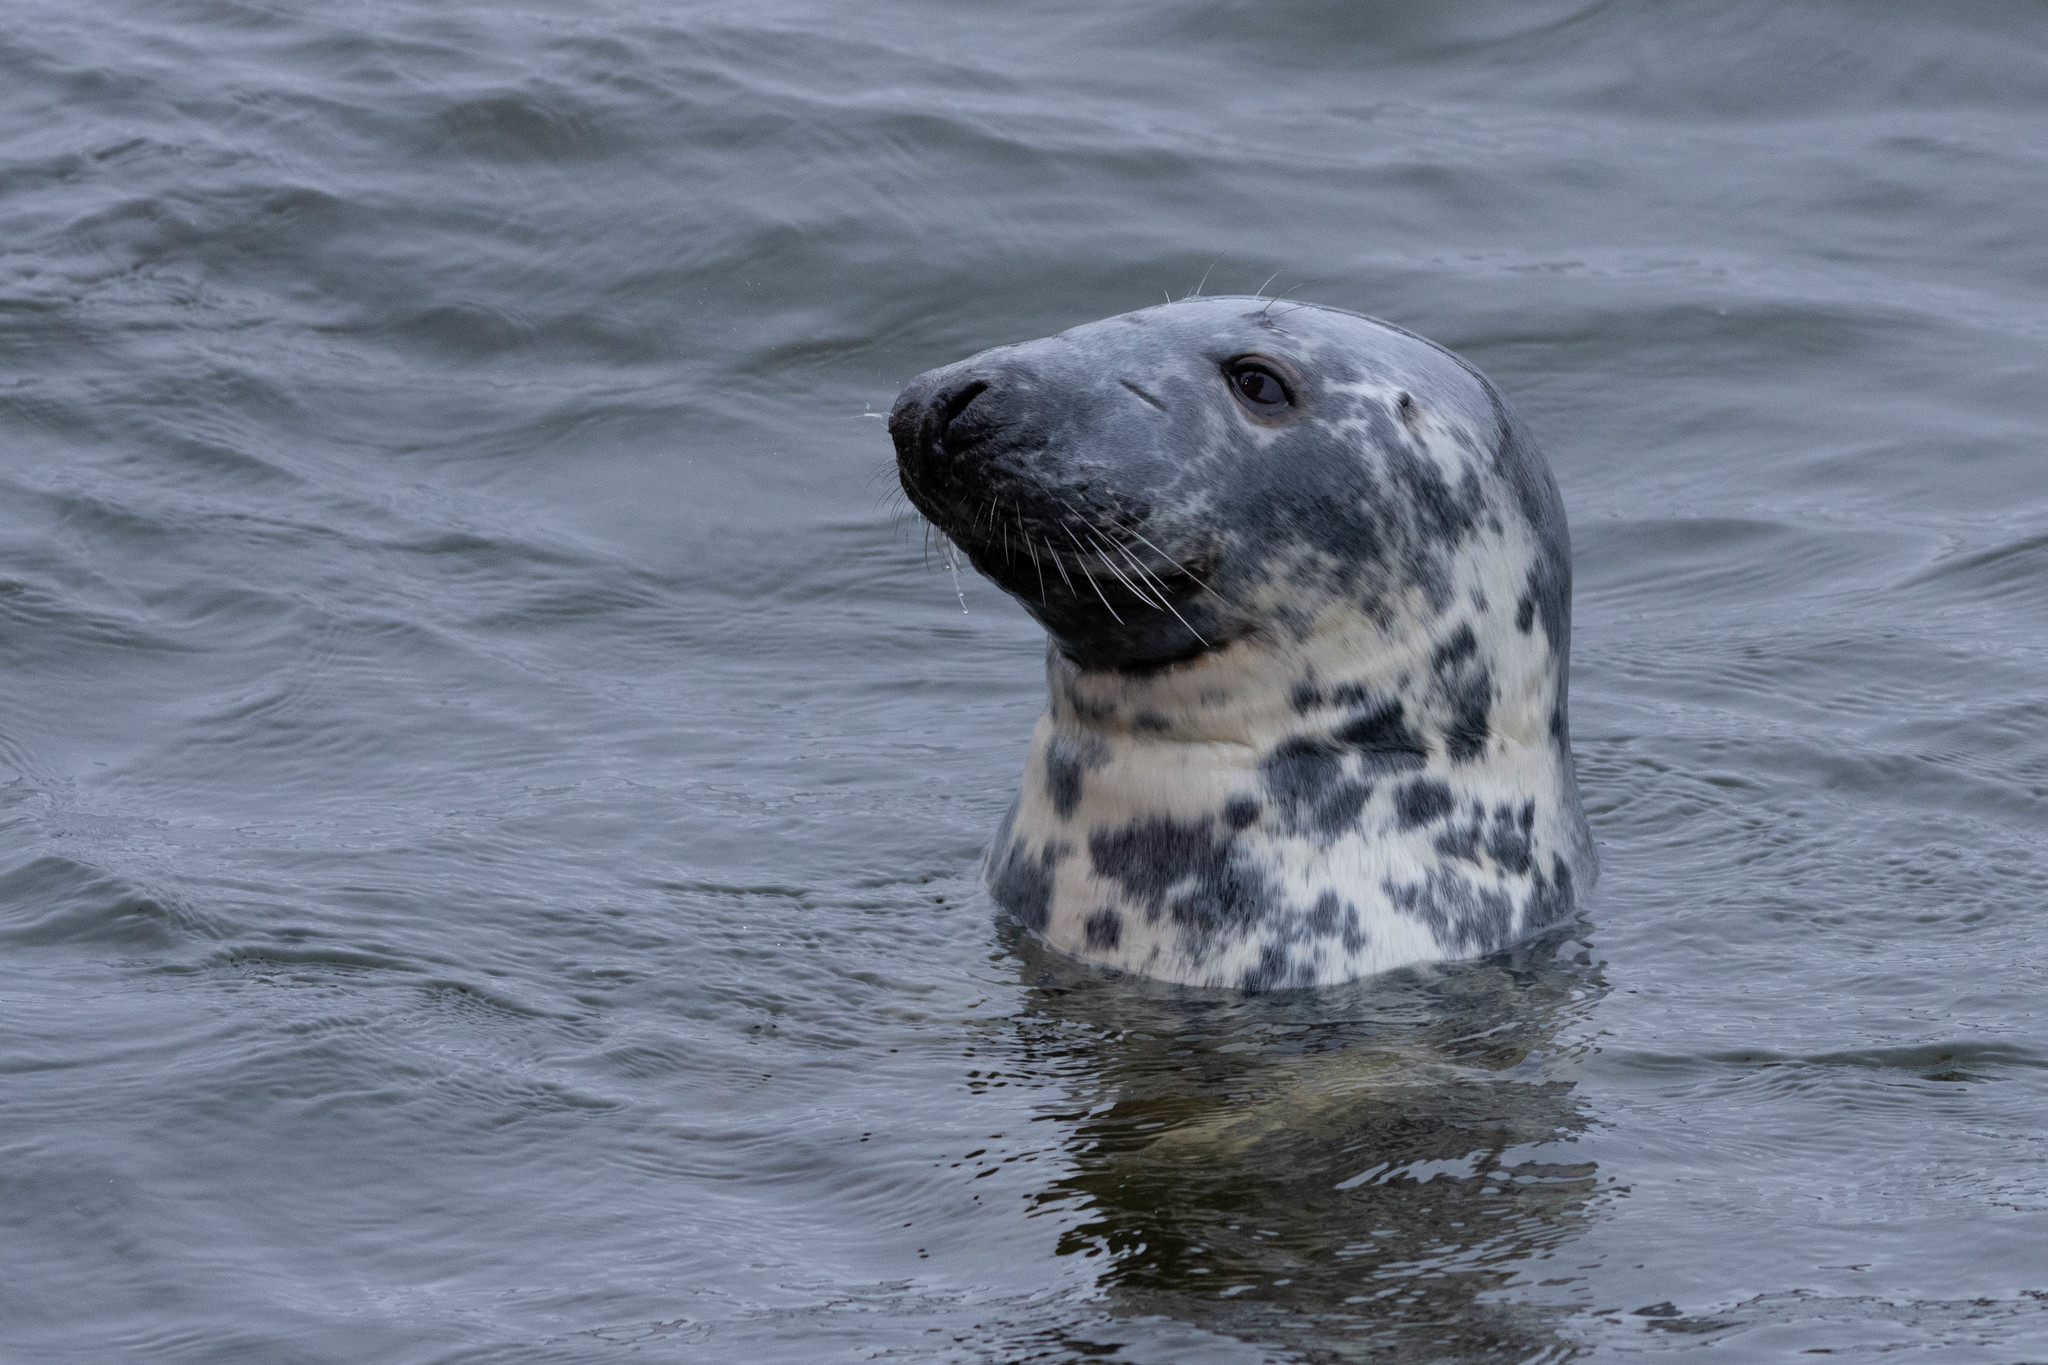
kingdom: Animalia
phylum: Chordata
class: Mammalia
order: Carnivora
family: Phocidae
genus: Halichoerus
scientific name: Halichoerus grypus
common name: Grey seal
